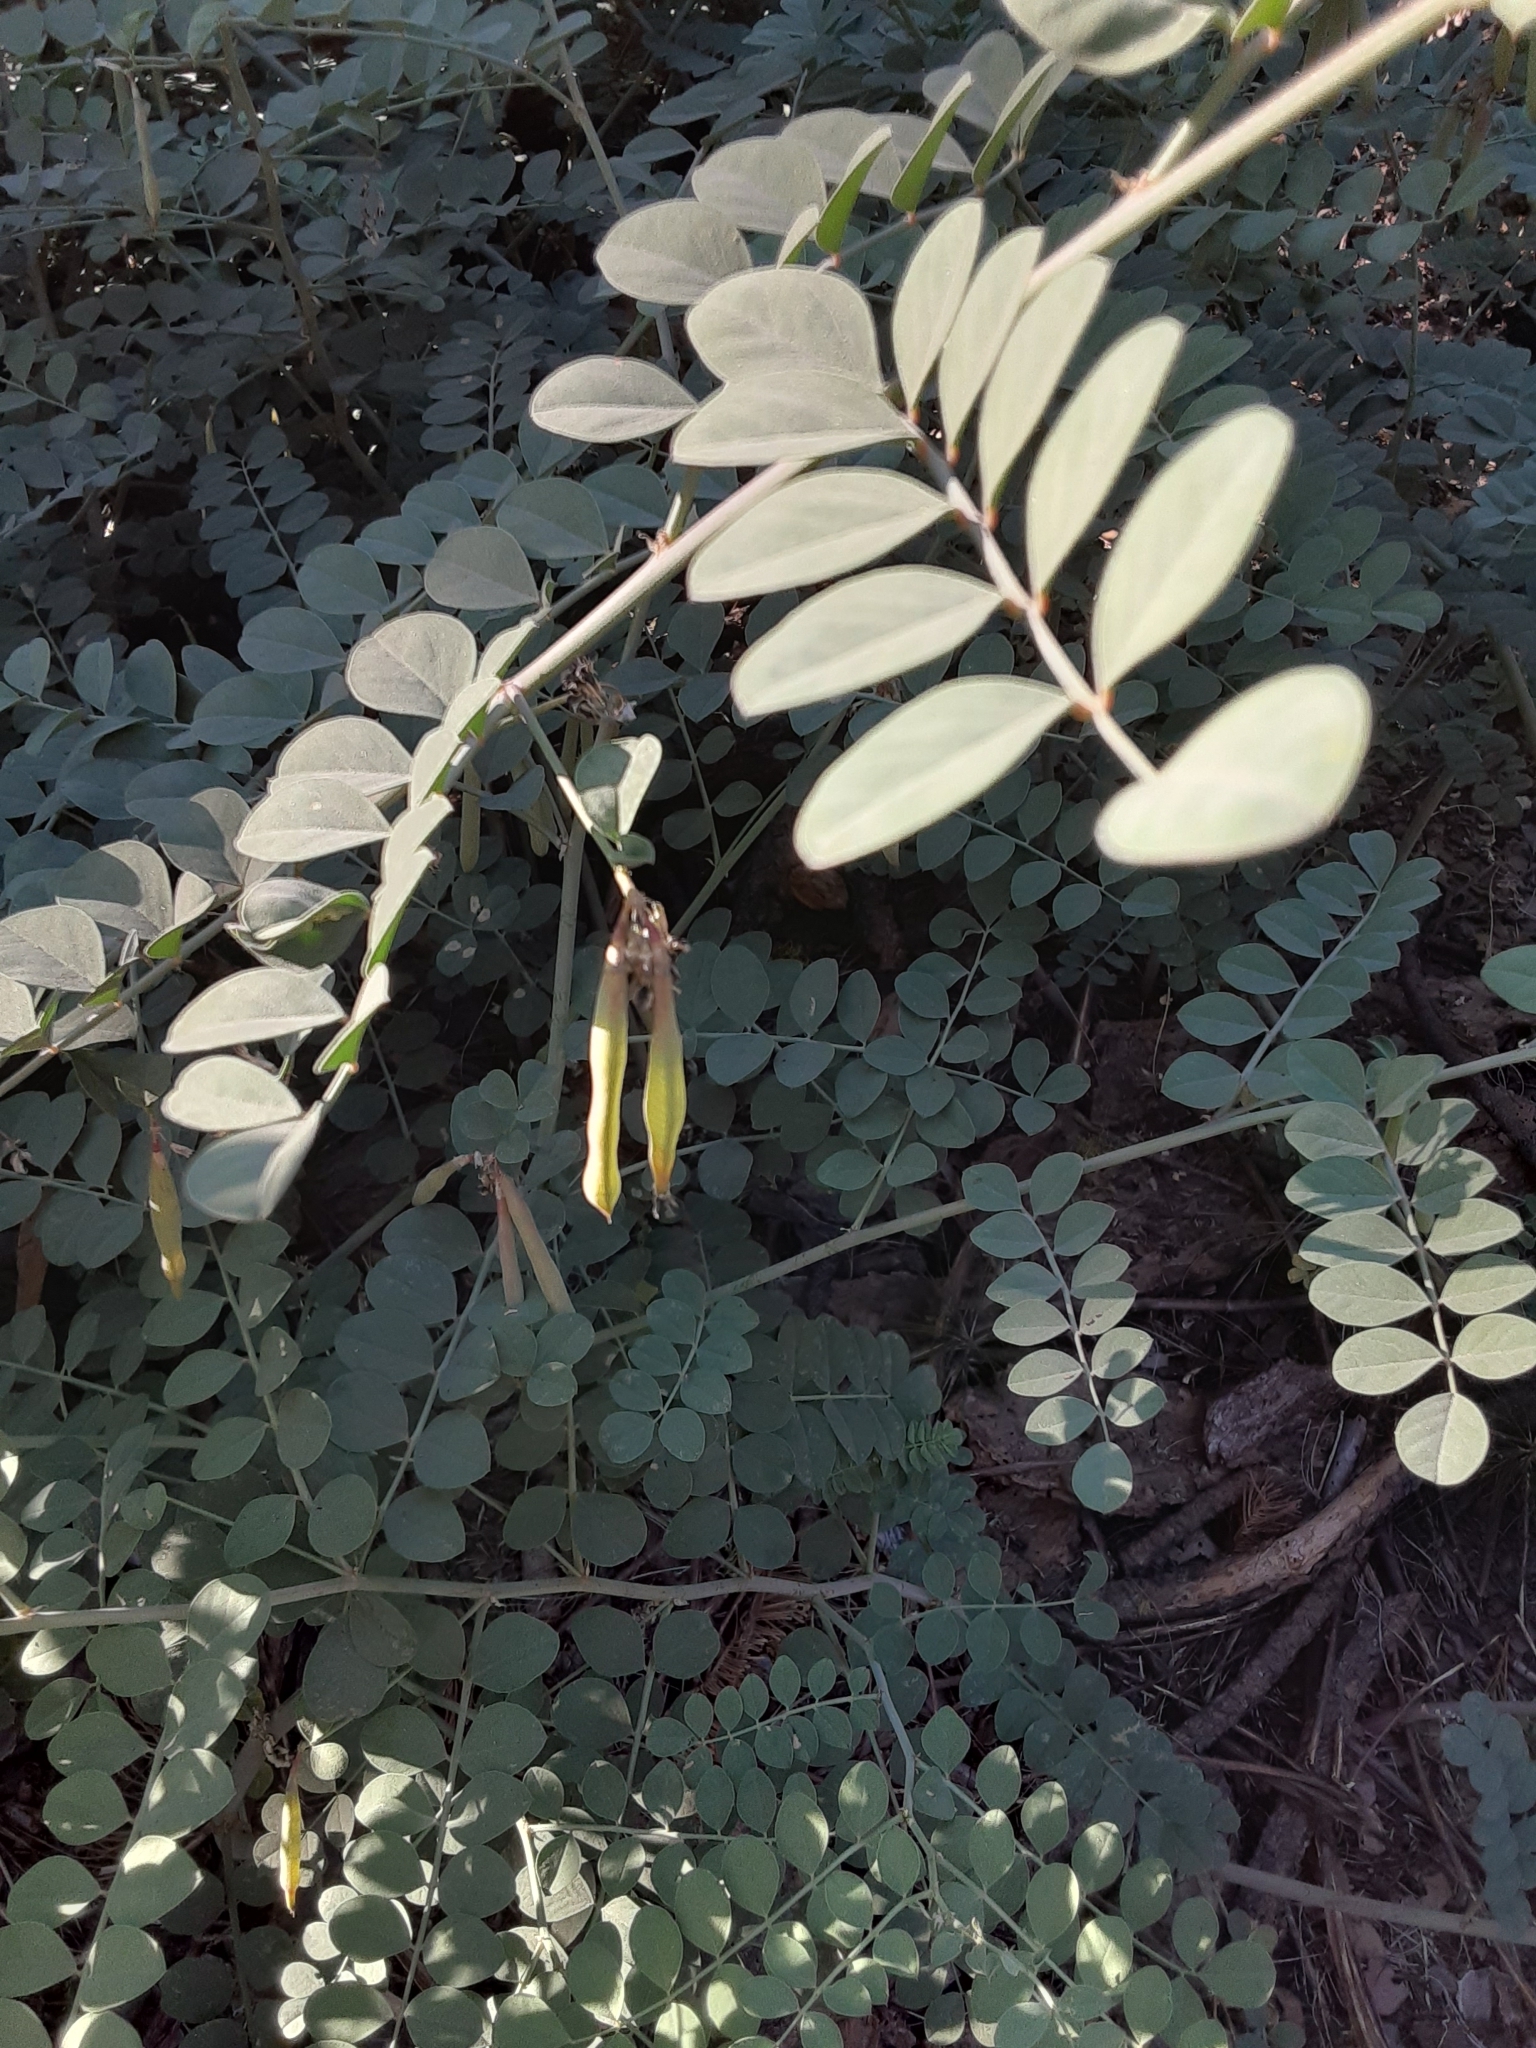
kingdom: Plantae
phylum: Tracheophyta
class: Magnoliopsida
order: Fabales
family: Fabaceae
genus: Hosackia
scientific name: Hosackia crassifolia
